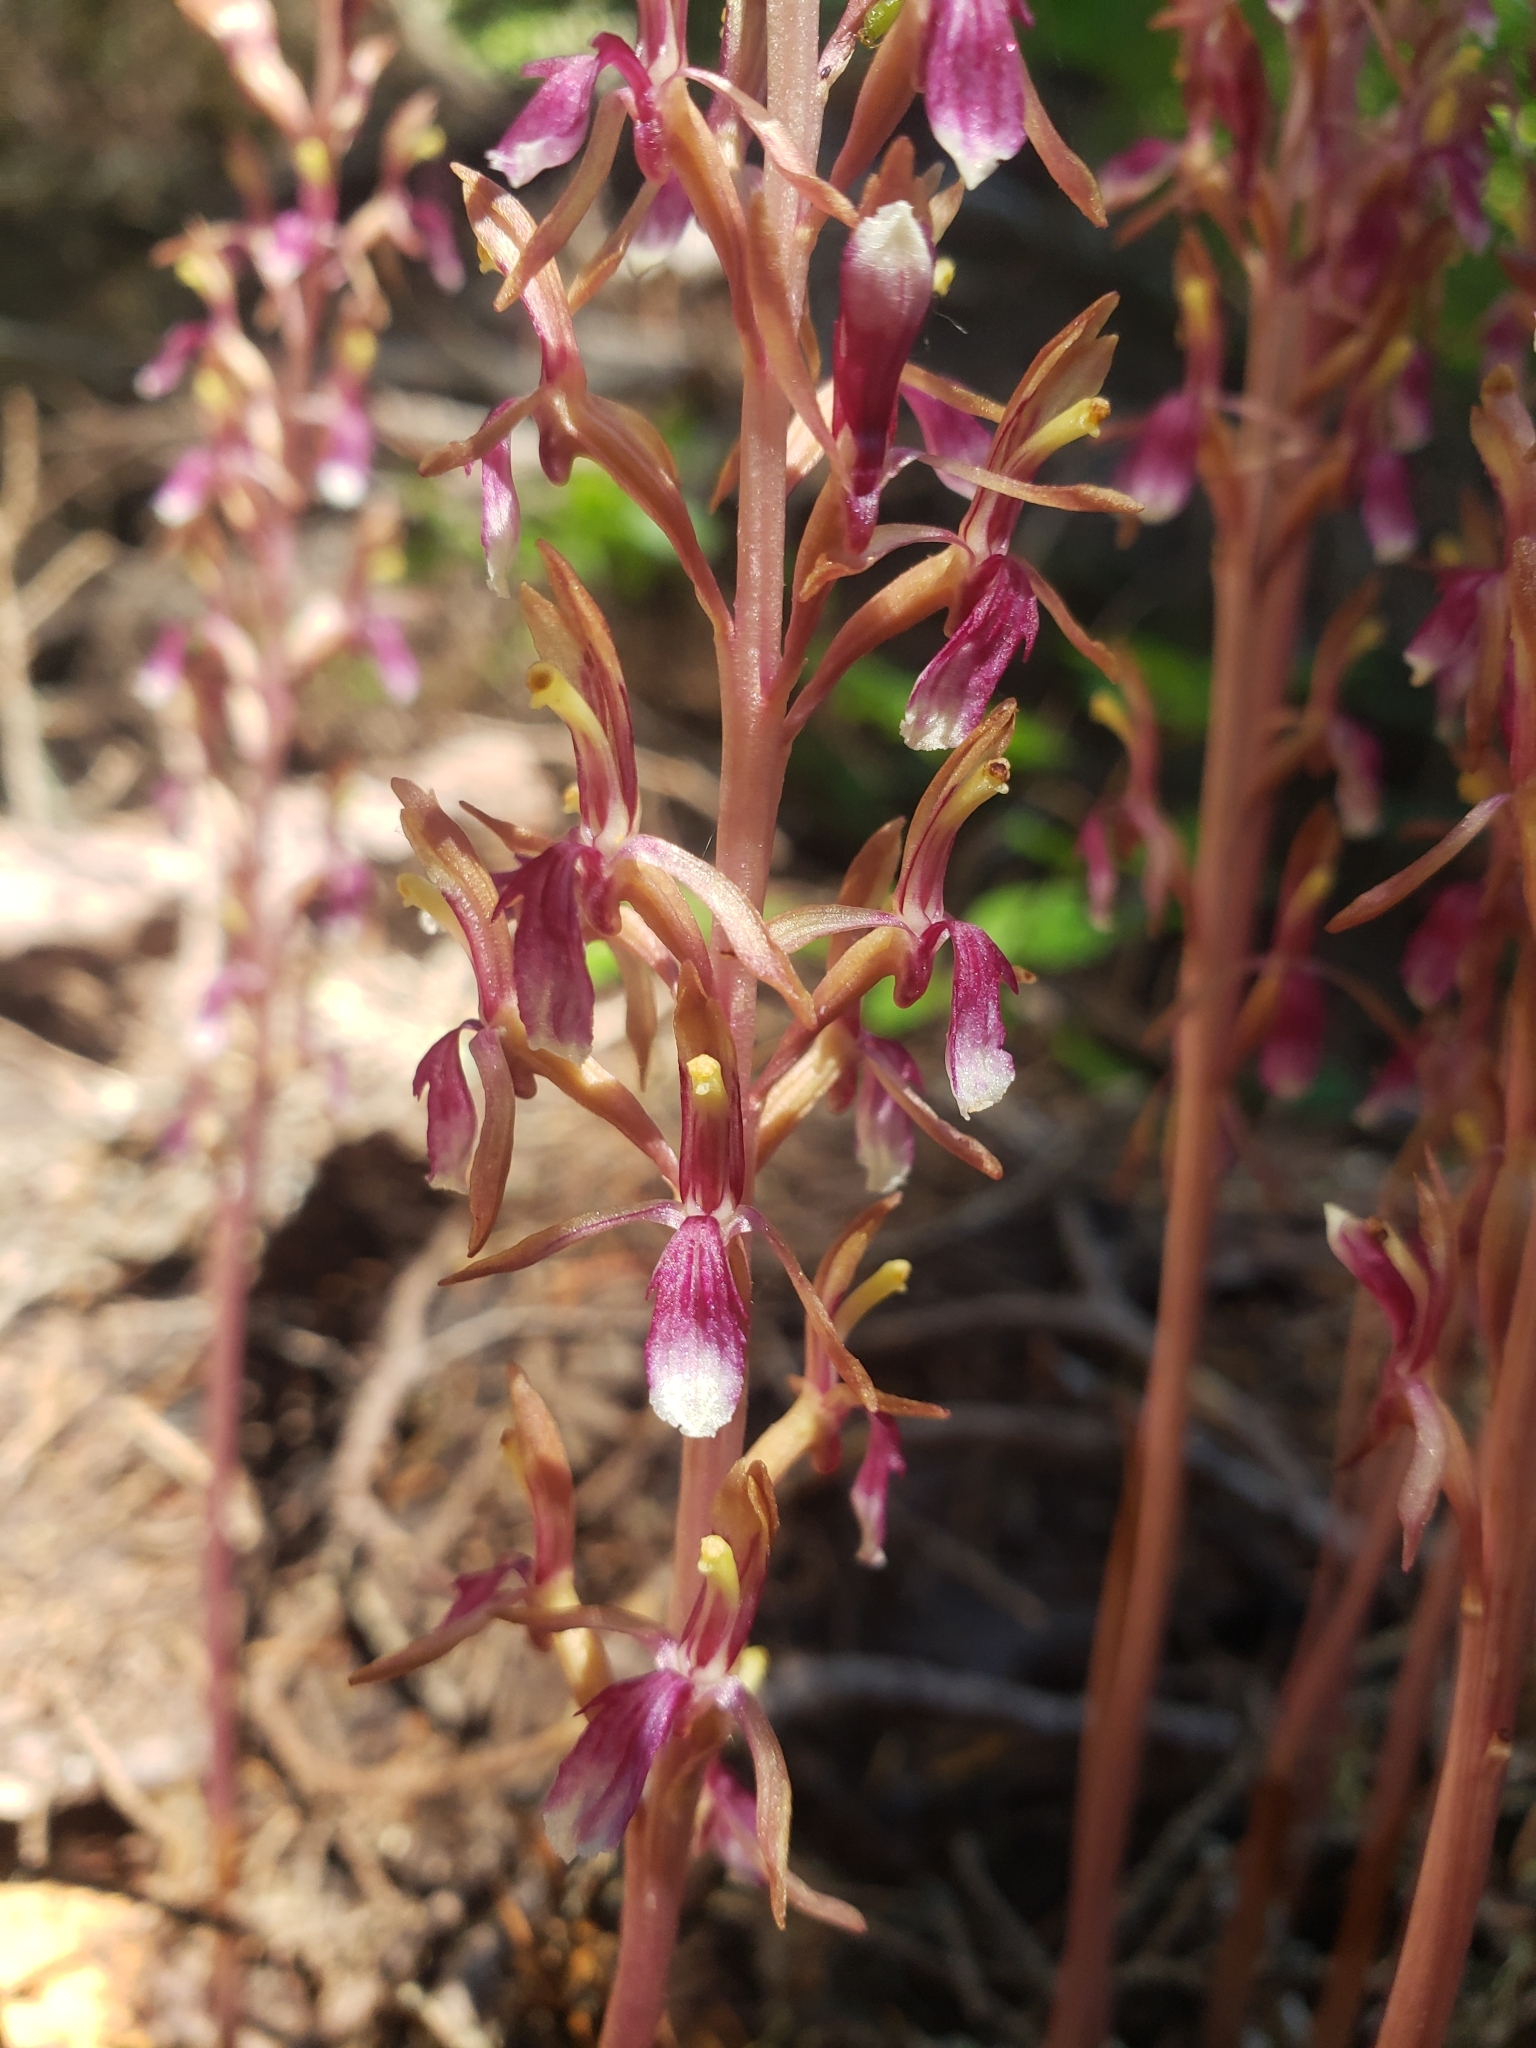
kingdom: Plantae
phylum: Tracheophyta
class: Liliopsida
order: Asparagales
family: Orchidaceae
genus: Corallorhiza
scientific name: Corallorhiza mertensiana
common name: Pacific coralroot
